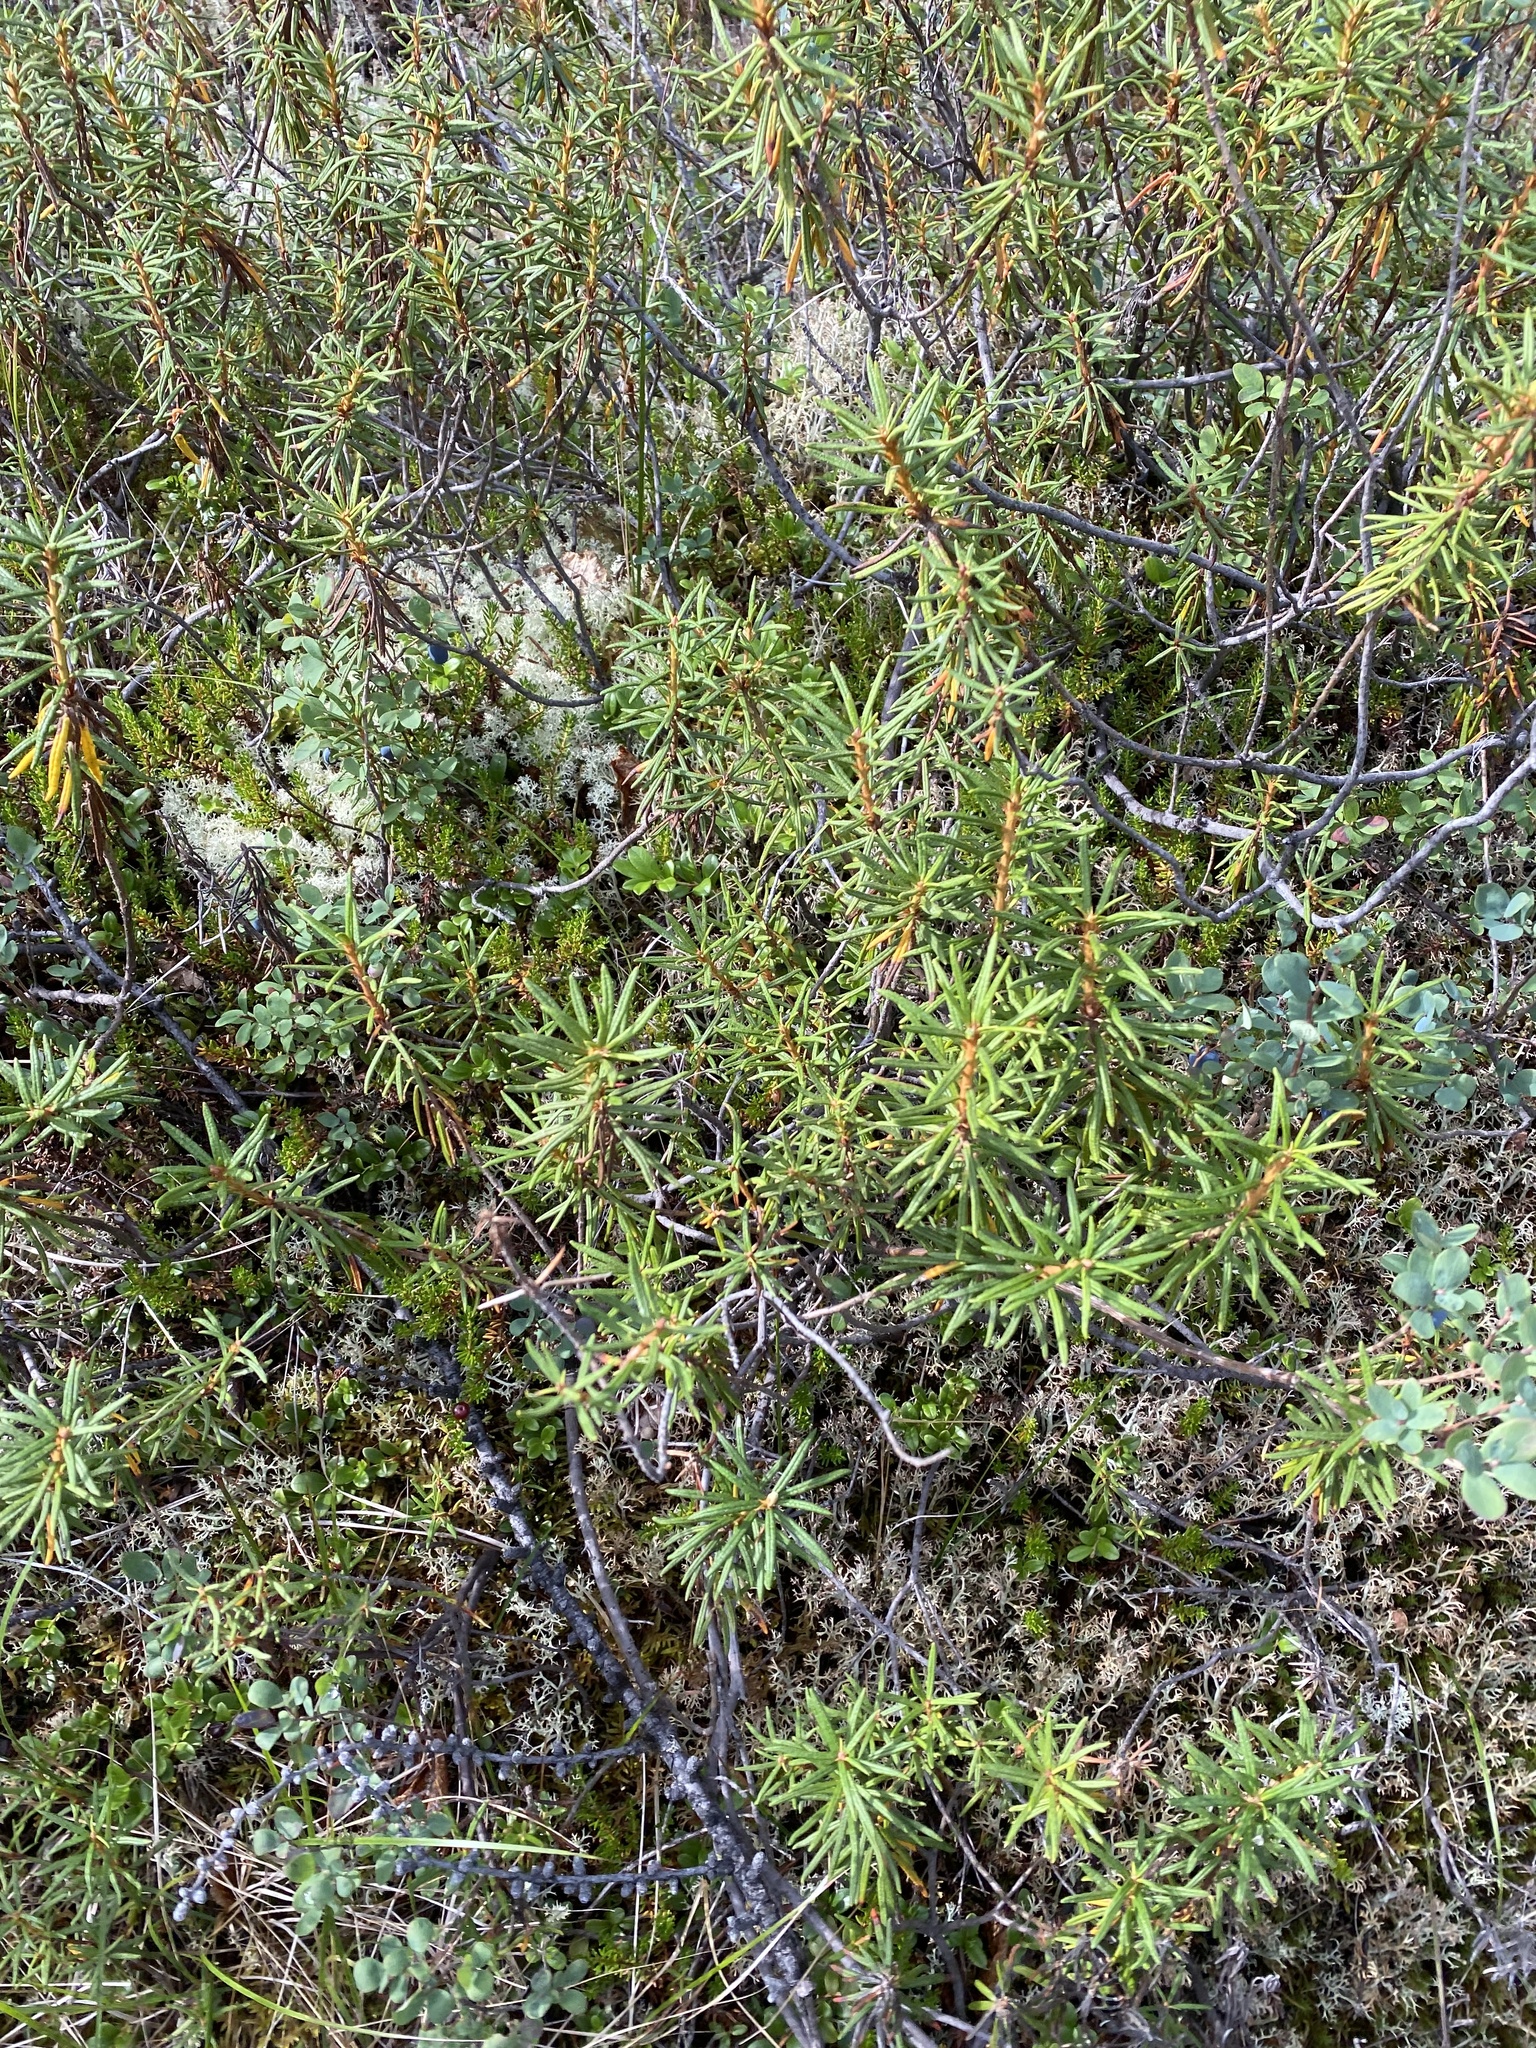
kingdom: Plantae
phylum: Tracheophyta
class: Magnoliopsida
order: Ericales
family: Ericaceae
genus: Rhododendron
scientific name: Rhododendron tomentosum
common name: Marsh labrador tea
